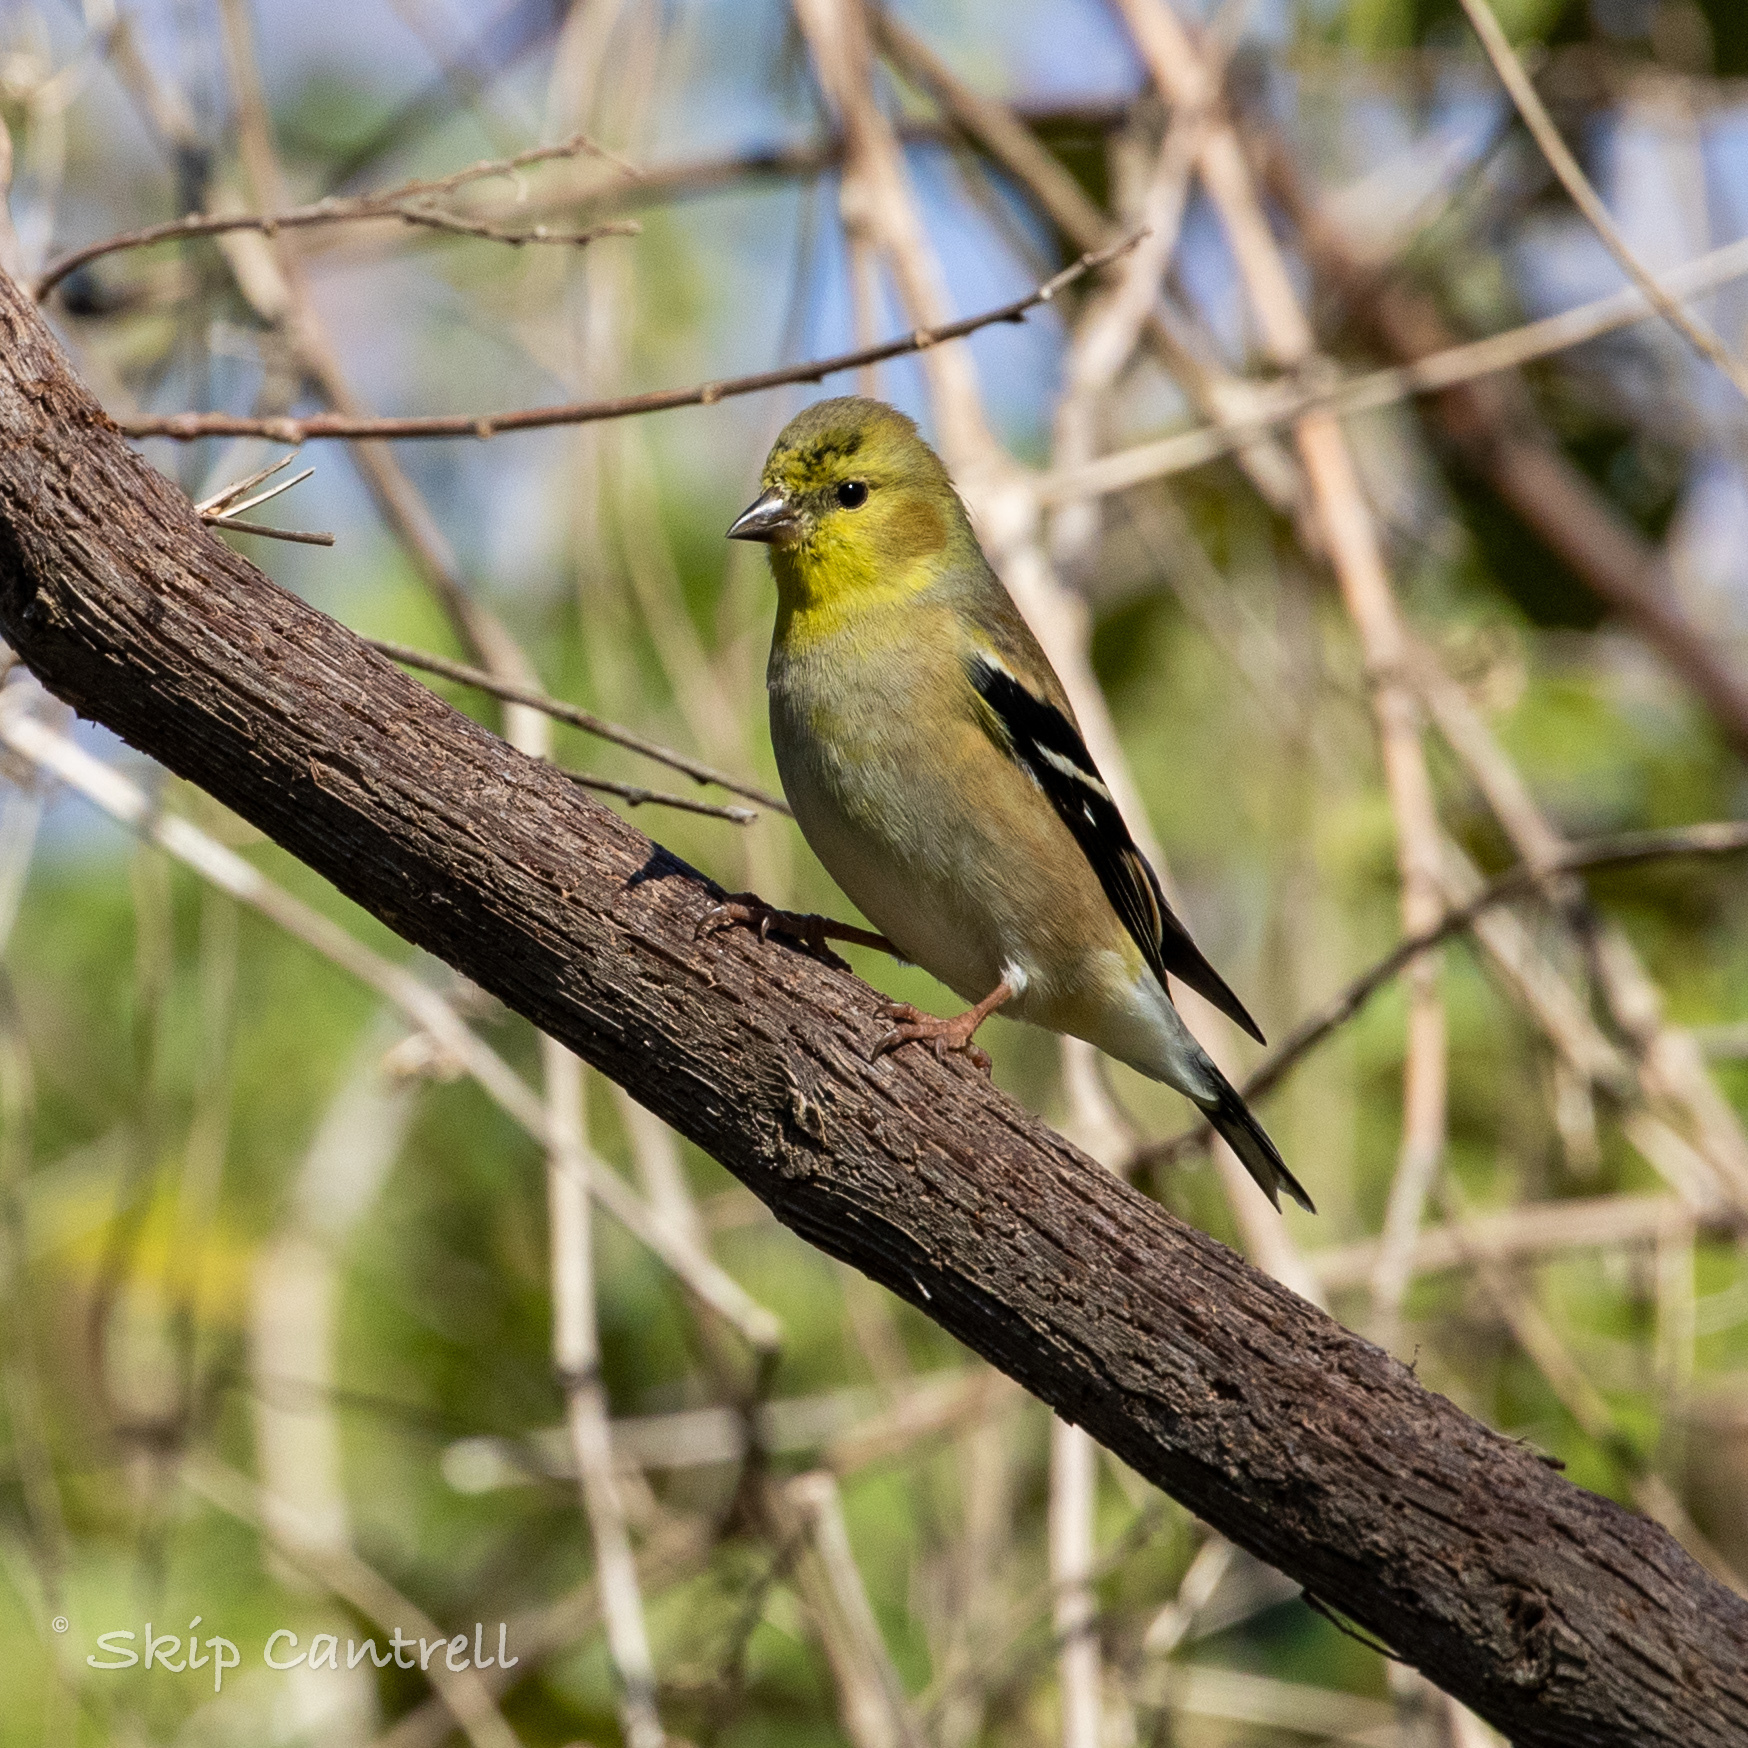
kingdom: Animalia
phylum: Chordata
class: Aves
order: Passeriformes
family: Fringillidae
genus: Spinus
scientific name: Spinus tristis
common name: American goldfinch
